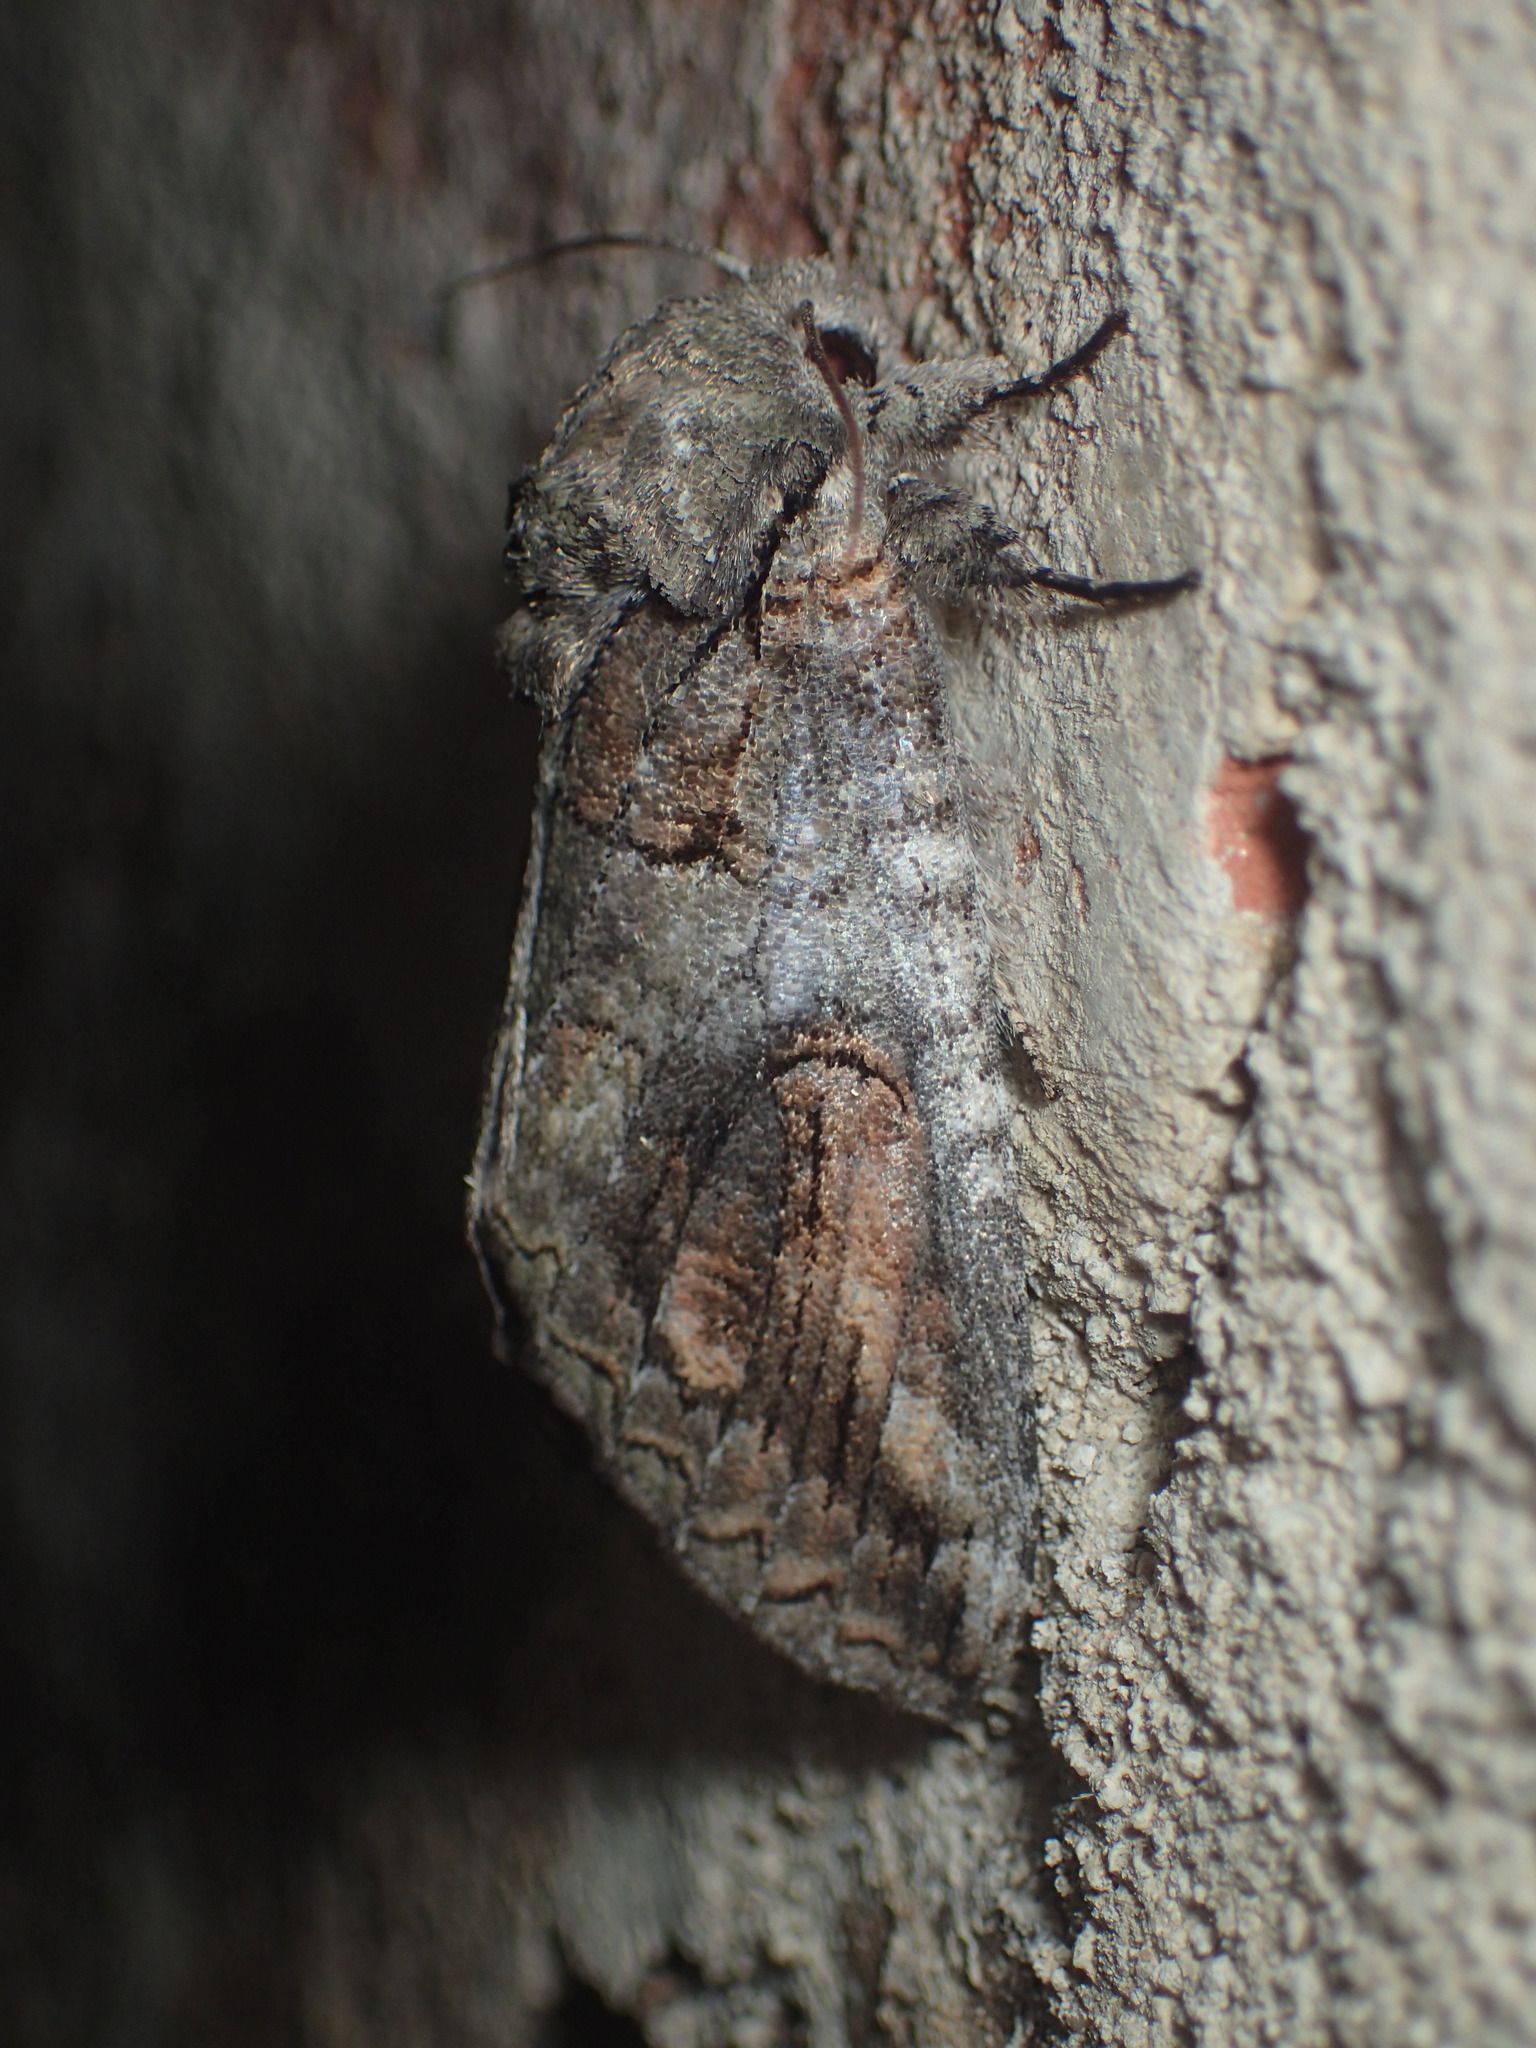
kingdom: Animalia
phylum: Arthropoda
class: Insecta
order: Lepidoptera
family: Notodontidae
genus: Heterocampa
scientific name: Heterocampa obliqua
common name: Oblique heterocampa
